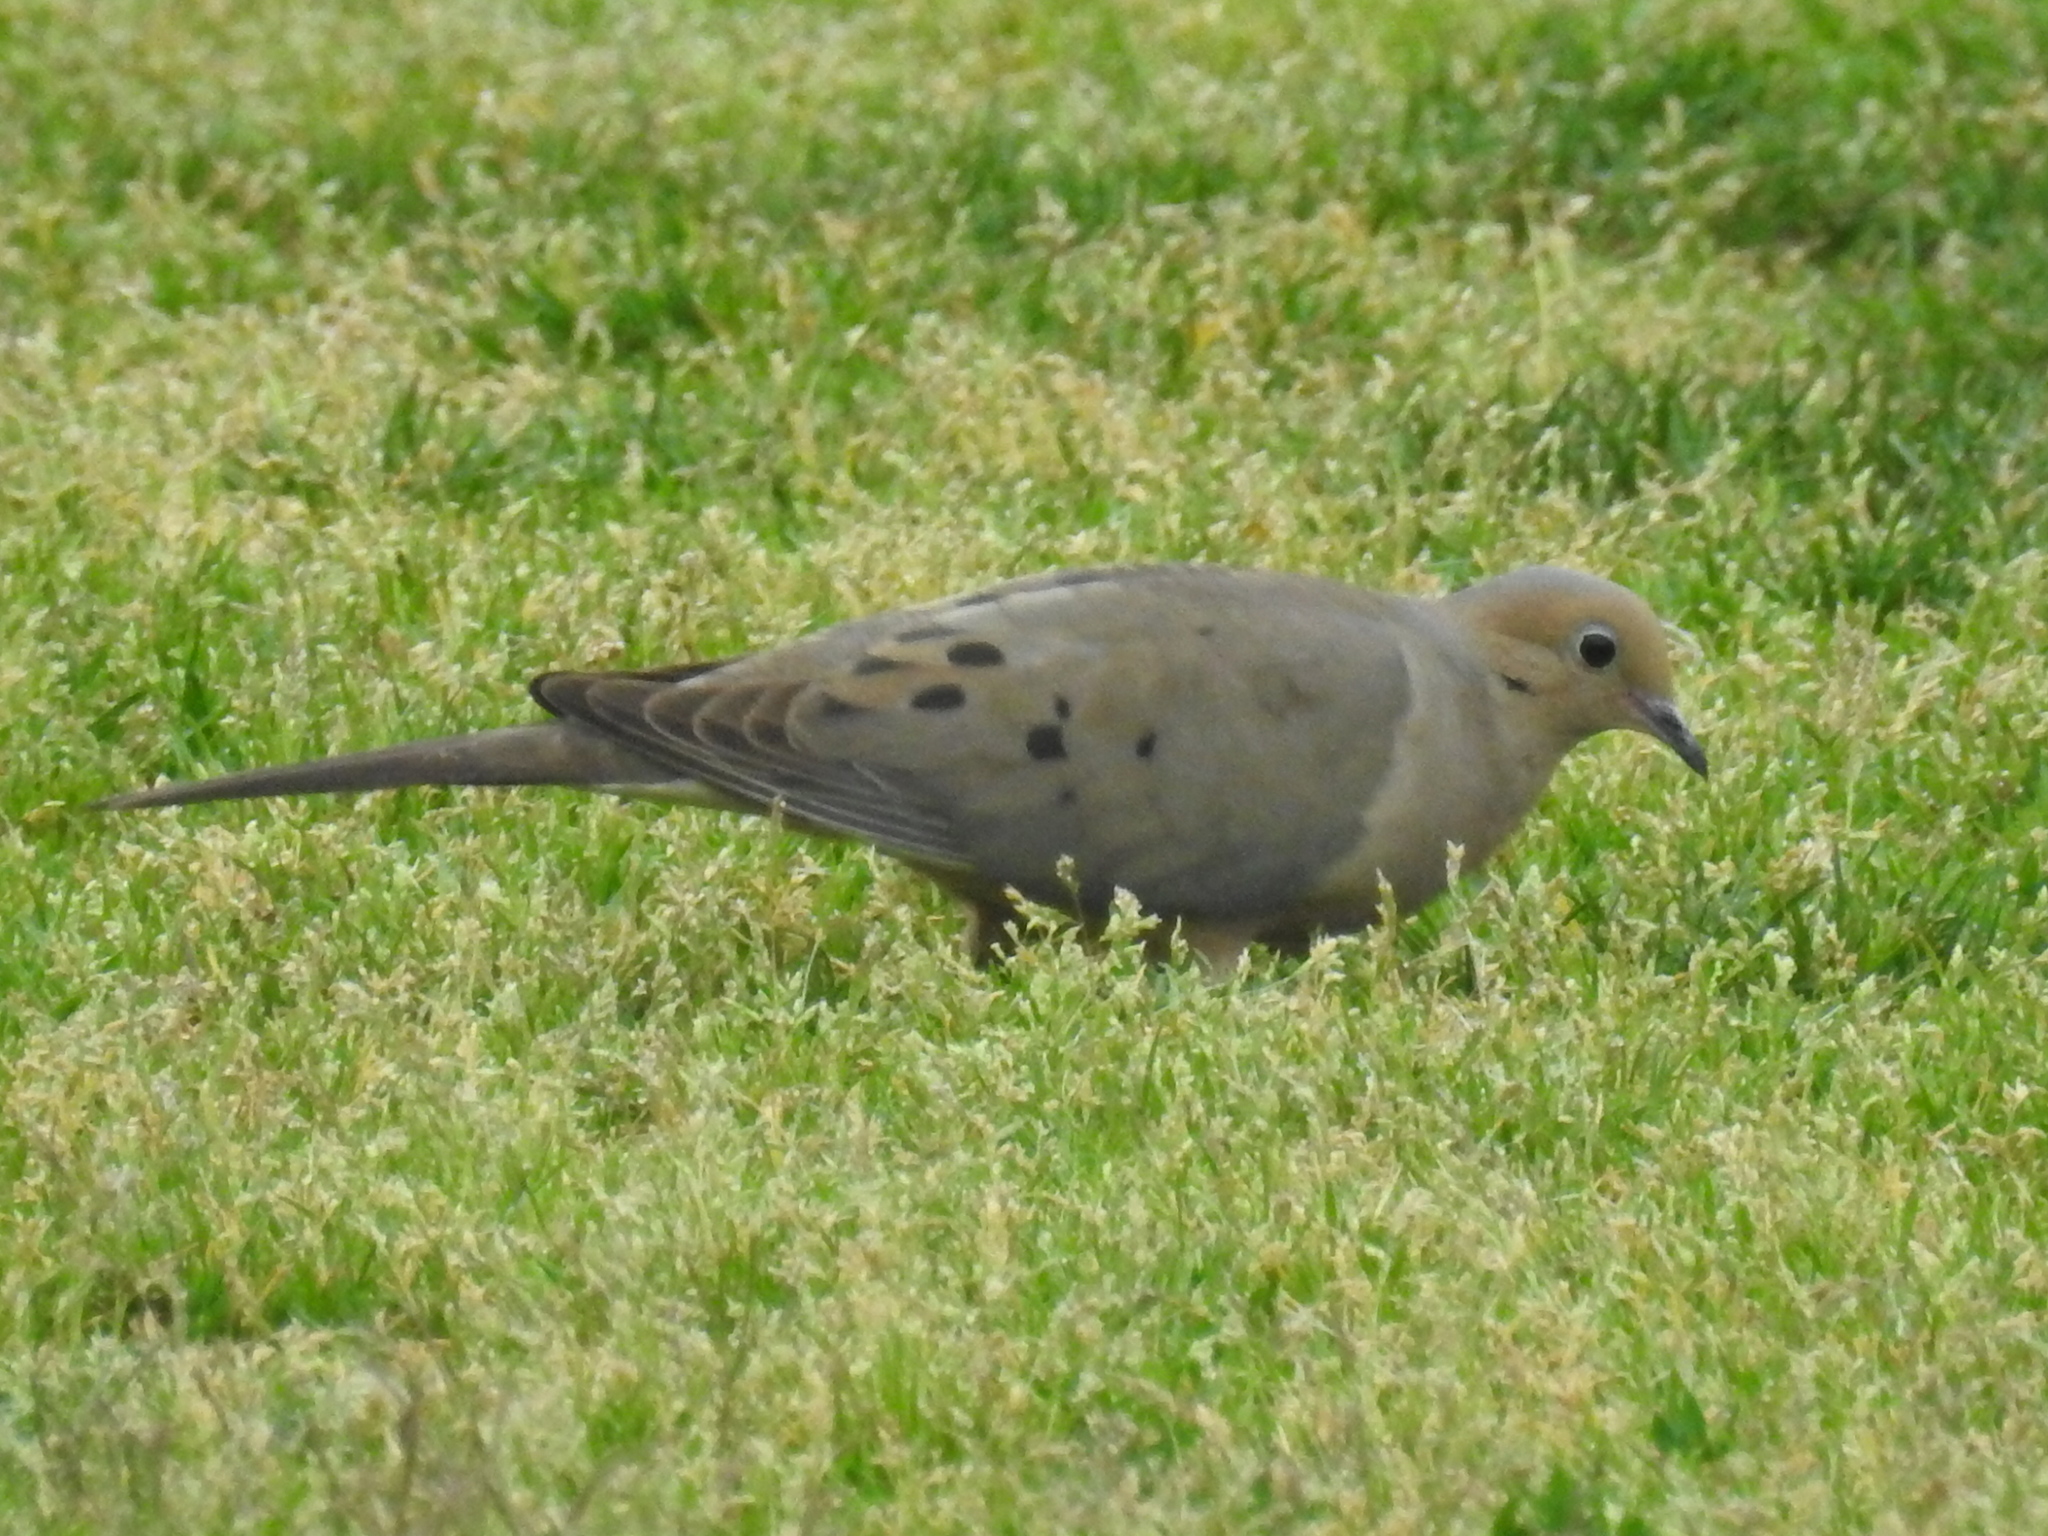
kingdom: Animalia
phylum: Chordata
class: Aves
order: Columbiformes
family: Columbidae
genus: Zenaida
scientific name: Zenaida macroura
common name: Mourning dove
